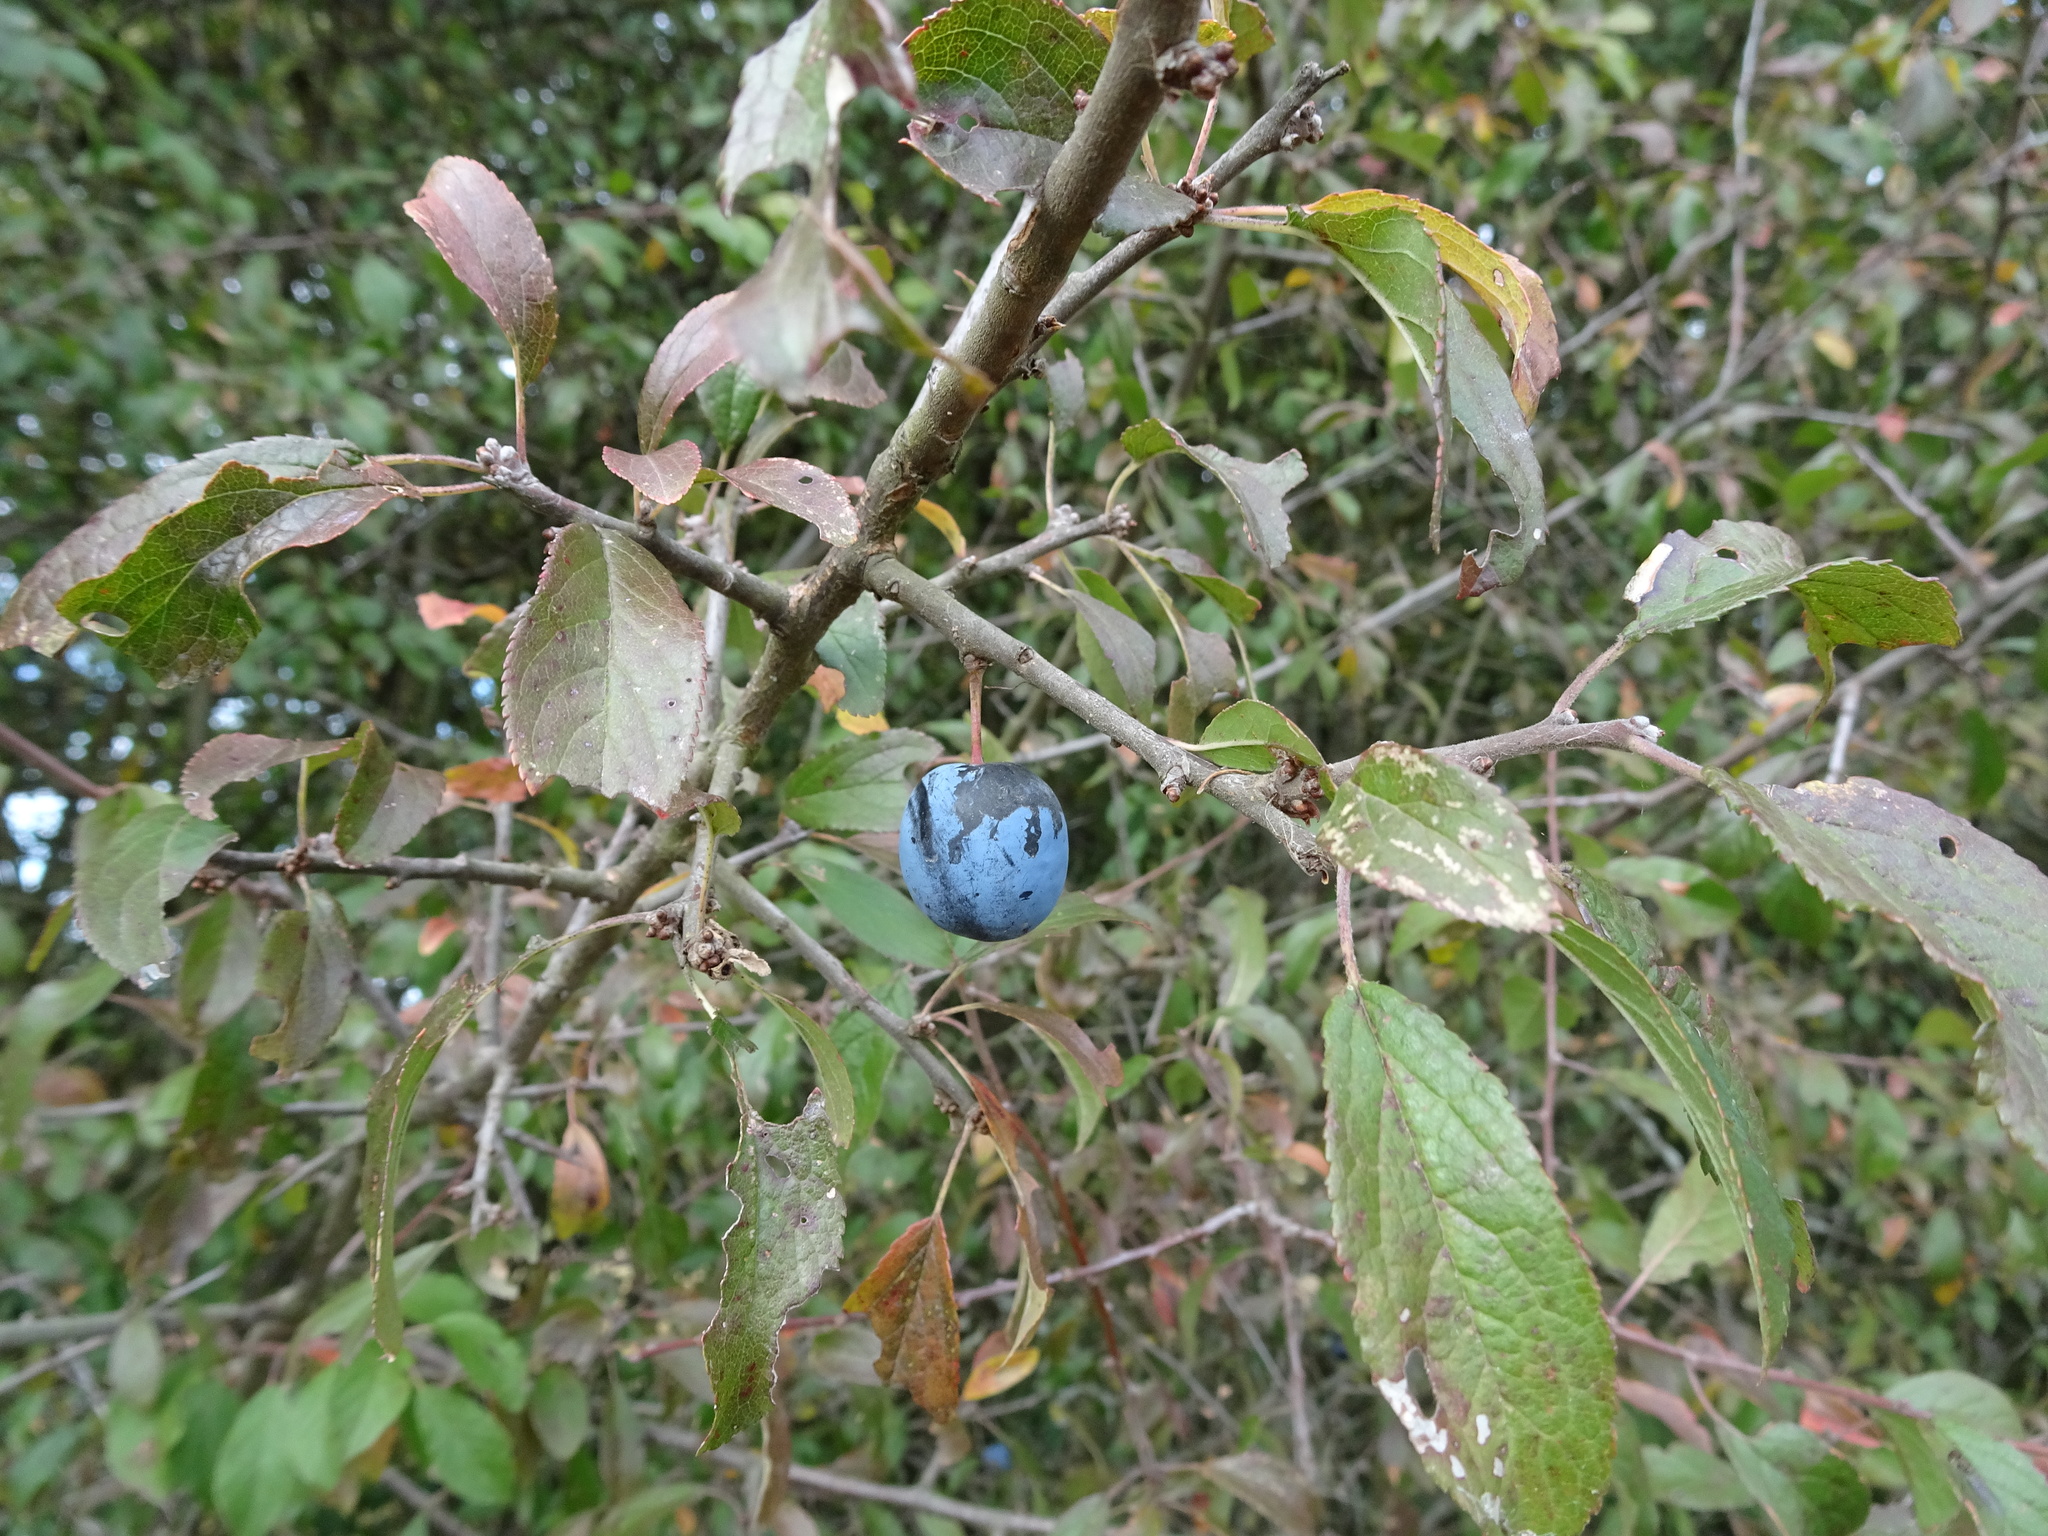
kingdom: Plantae
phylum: Tracheophyta
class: Magnoliopsida
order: Rosales
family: Rosaceae
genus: Prunus
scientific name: Prunus spinosa
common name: Blackthorn
